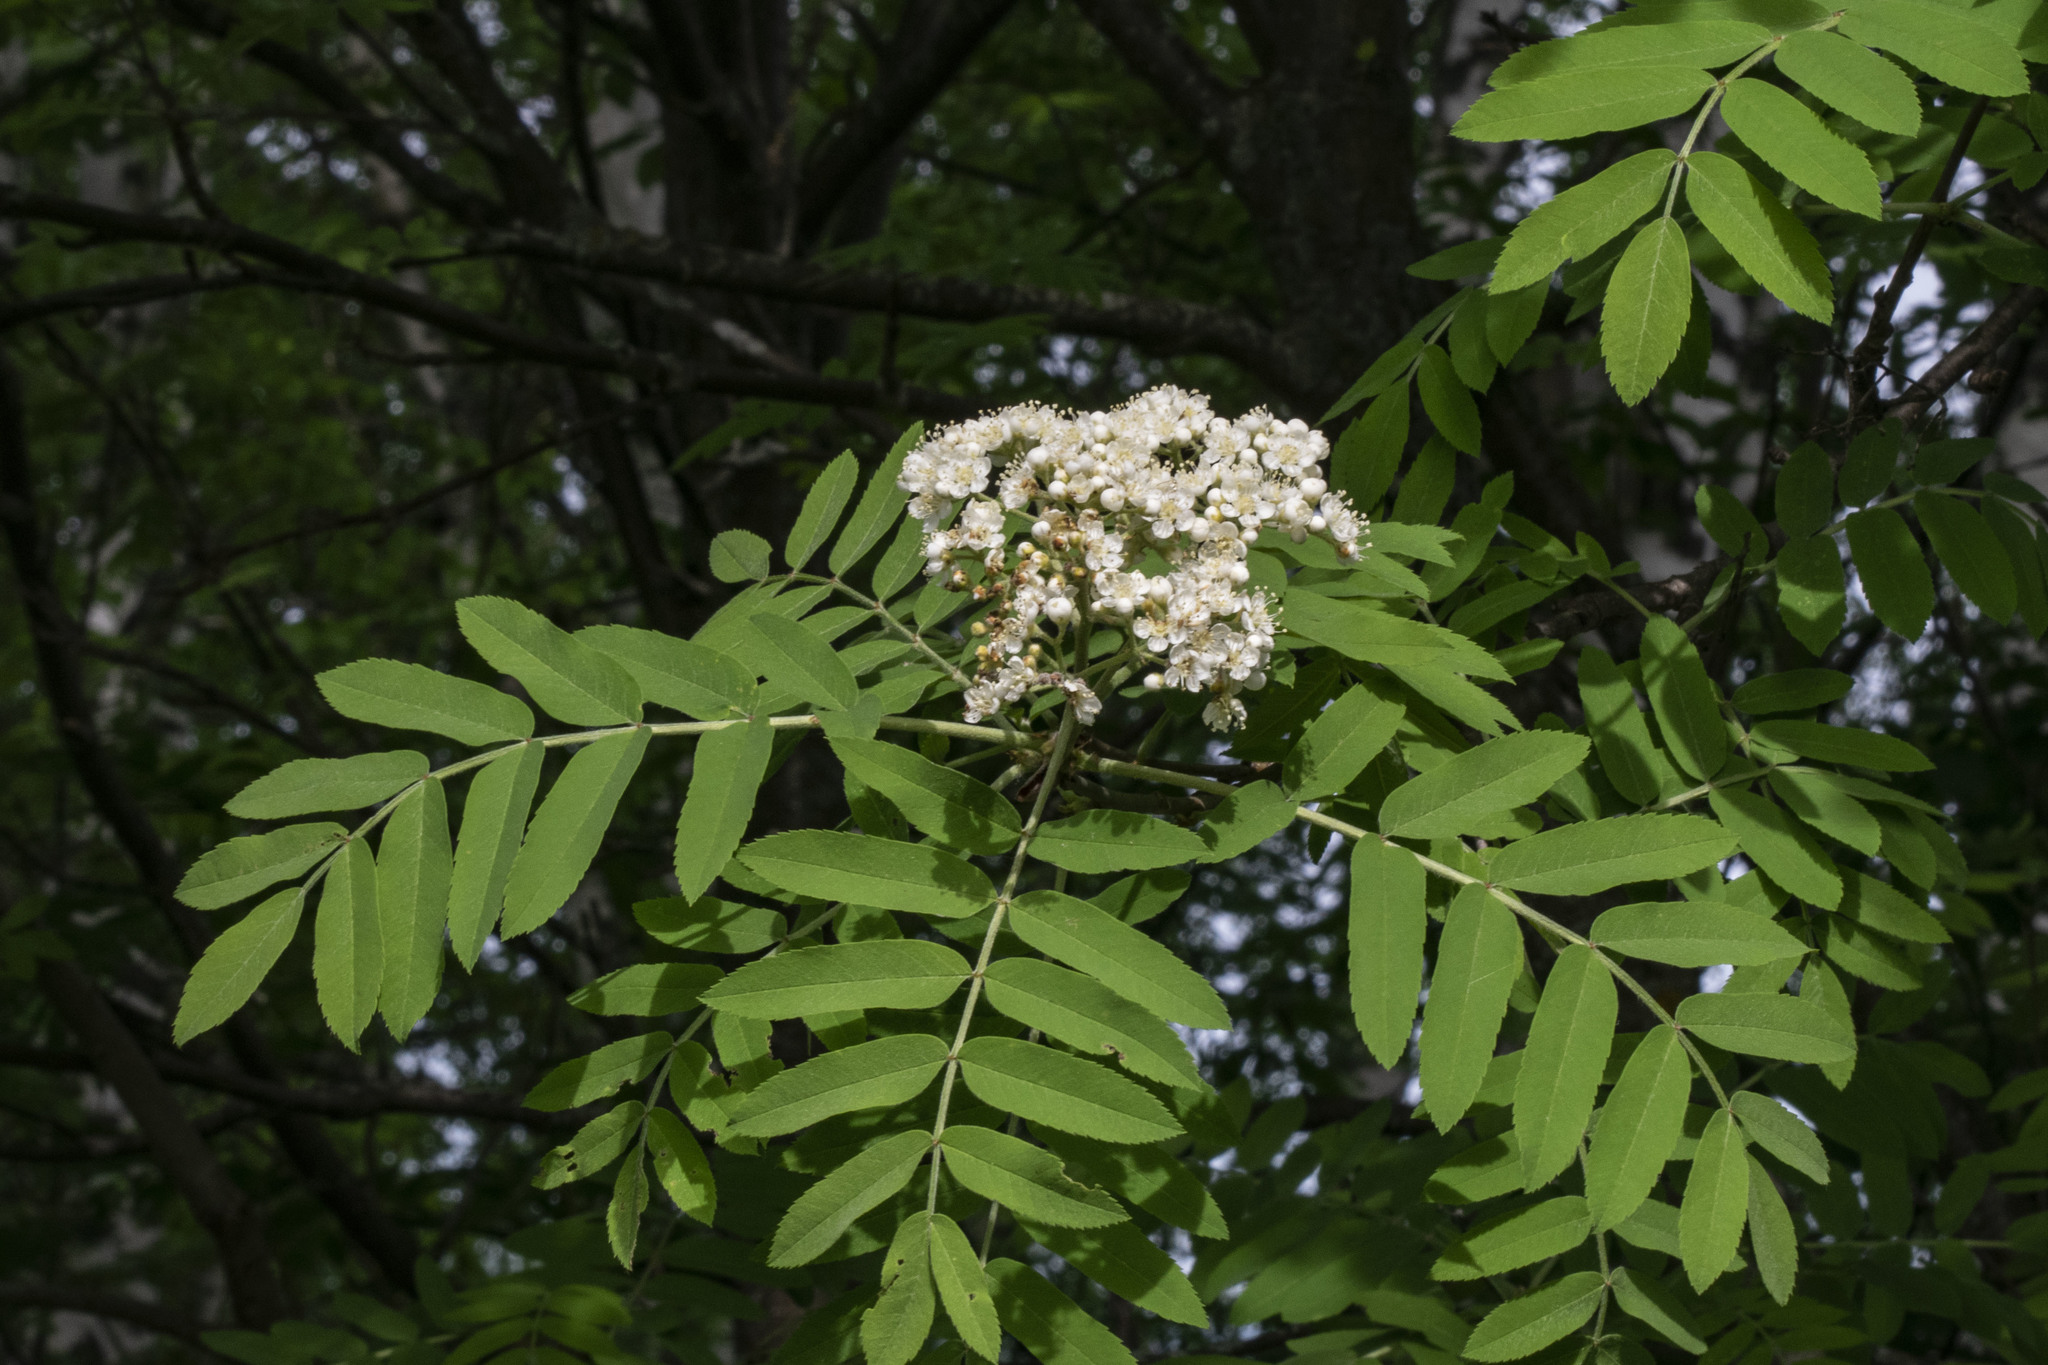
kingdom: Plantae
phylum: Tracheophyta
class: Magnoliopsida
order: Rosales
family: Rosaceae
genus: Sorbus
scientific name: Sorbus aucuparia
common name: Rowan
